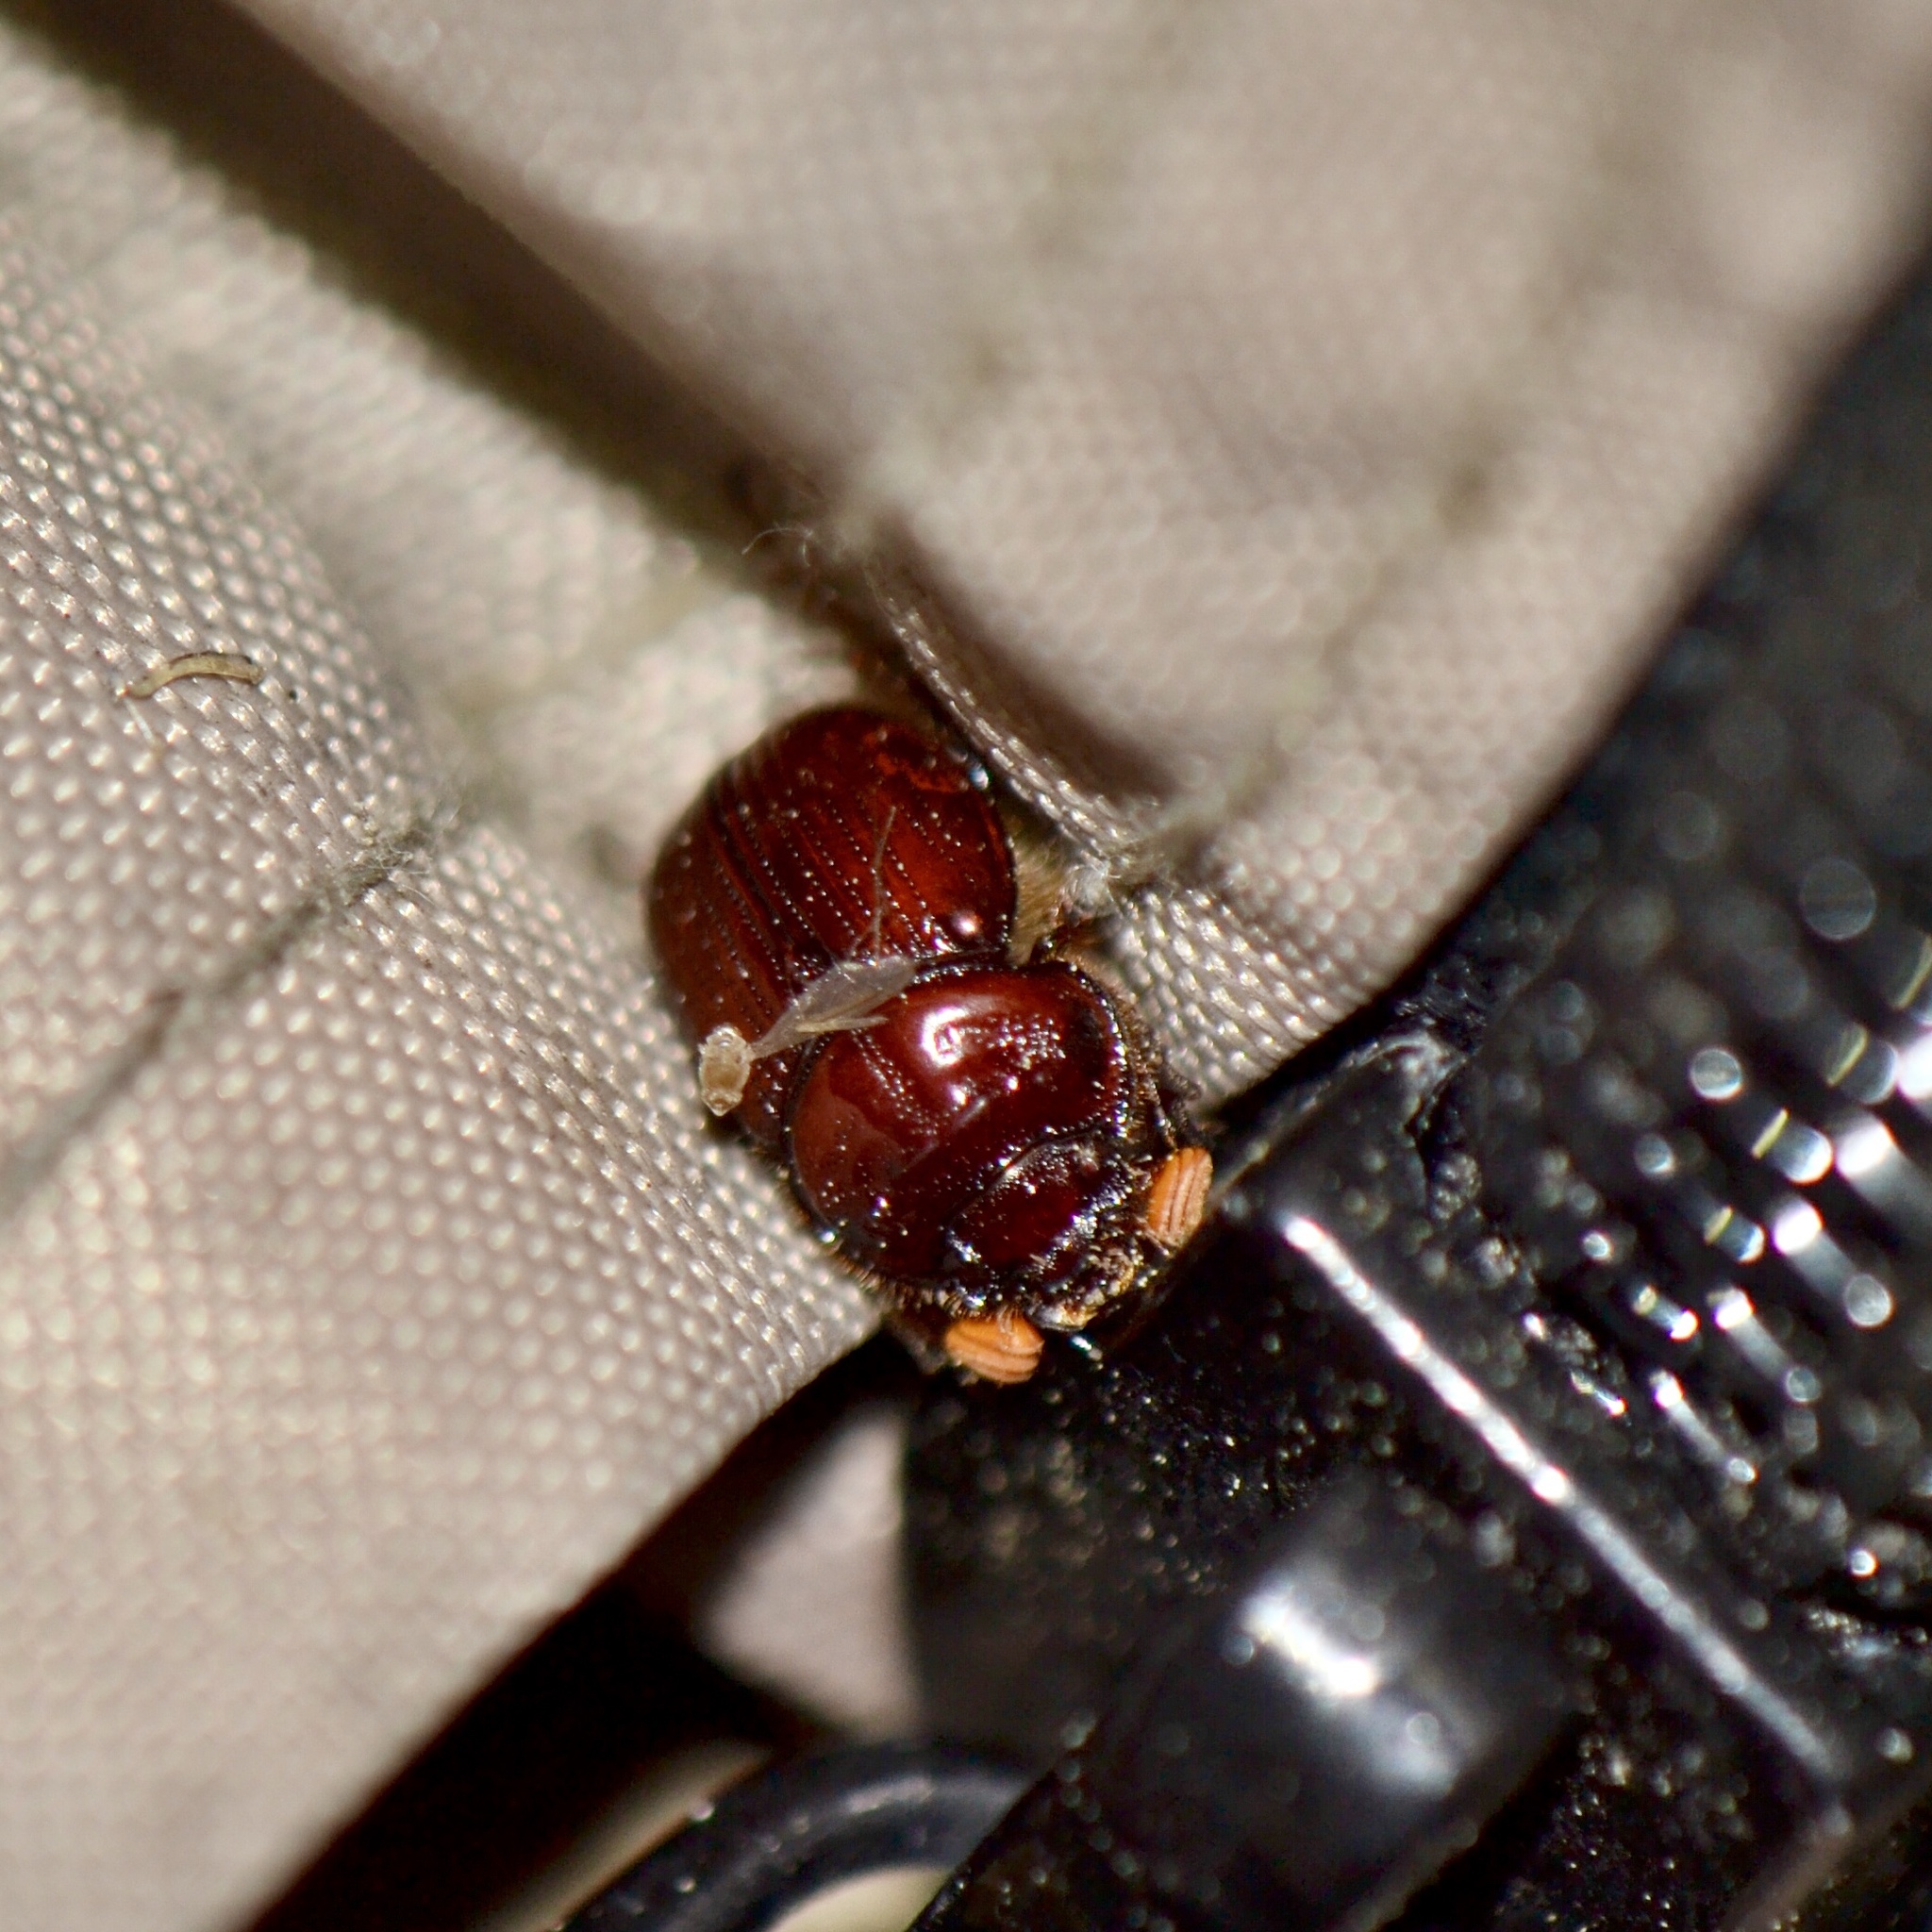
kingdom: Animalia
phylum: Arthropoda
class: Insecta
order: Coleoptera
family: Geotrupidae
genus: Bolbelasmus
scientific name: Bolbelasmus lazarus
